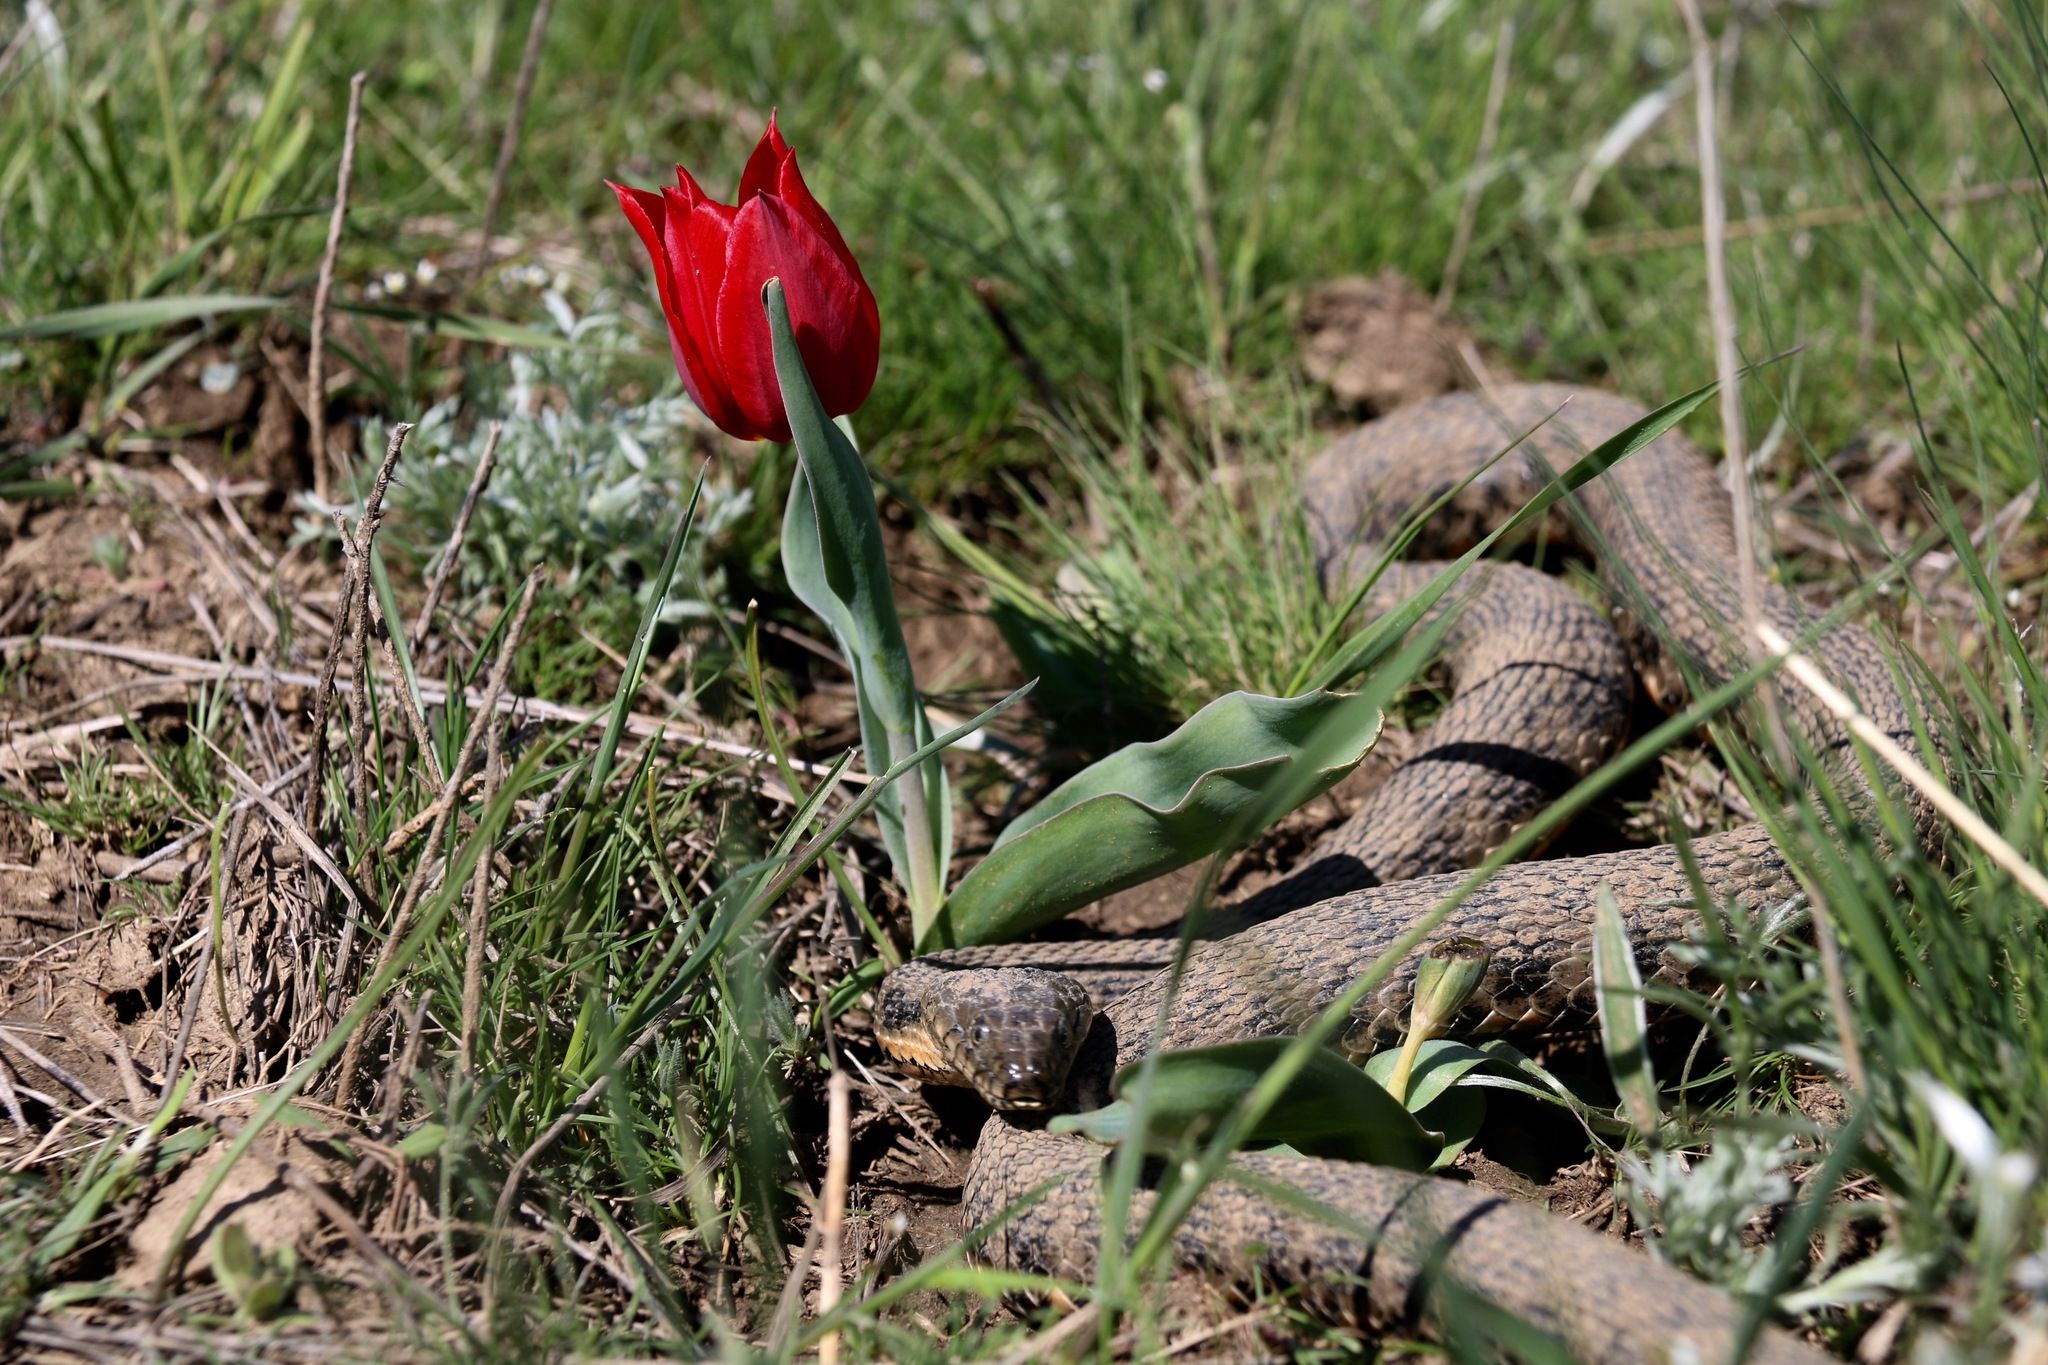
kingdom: Animalia
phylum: Chordata
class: Squamata
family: Colubridae
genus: Natrix
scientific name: Natrix tessellata
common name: Dice snake
